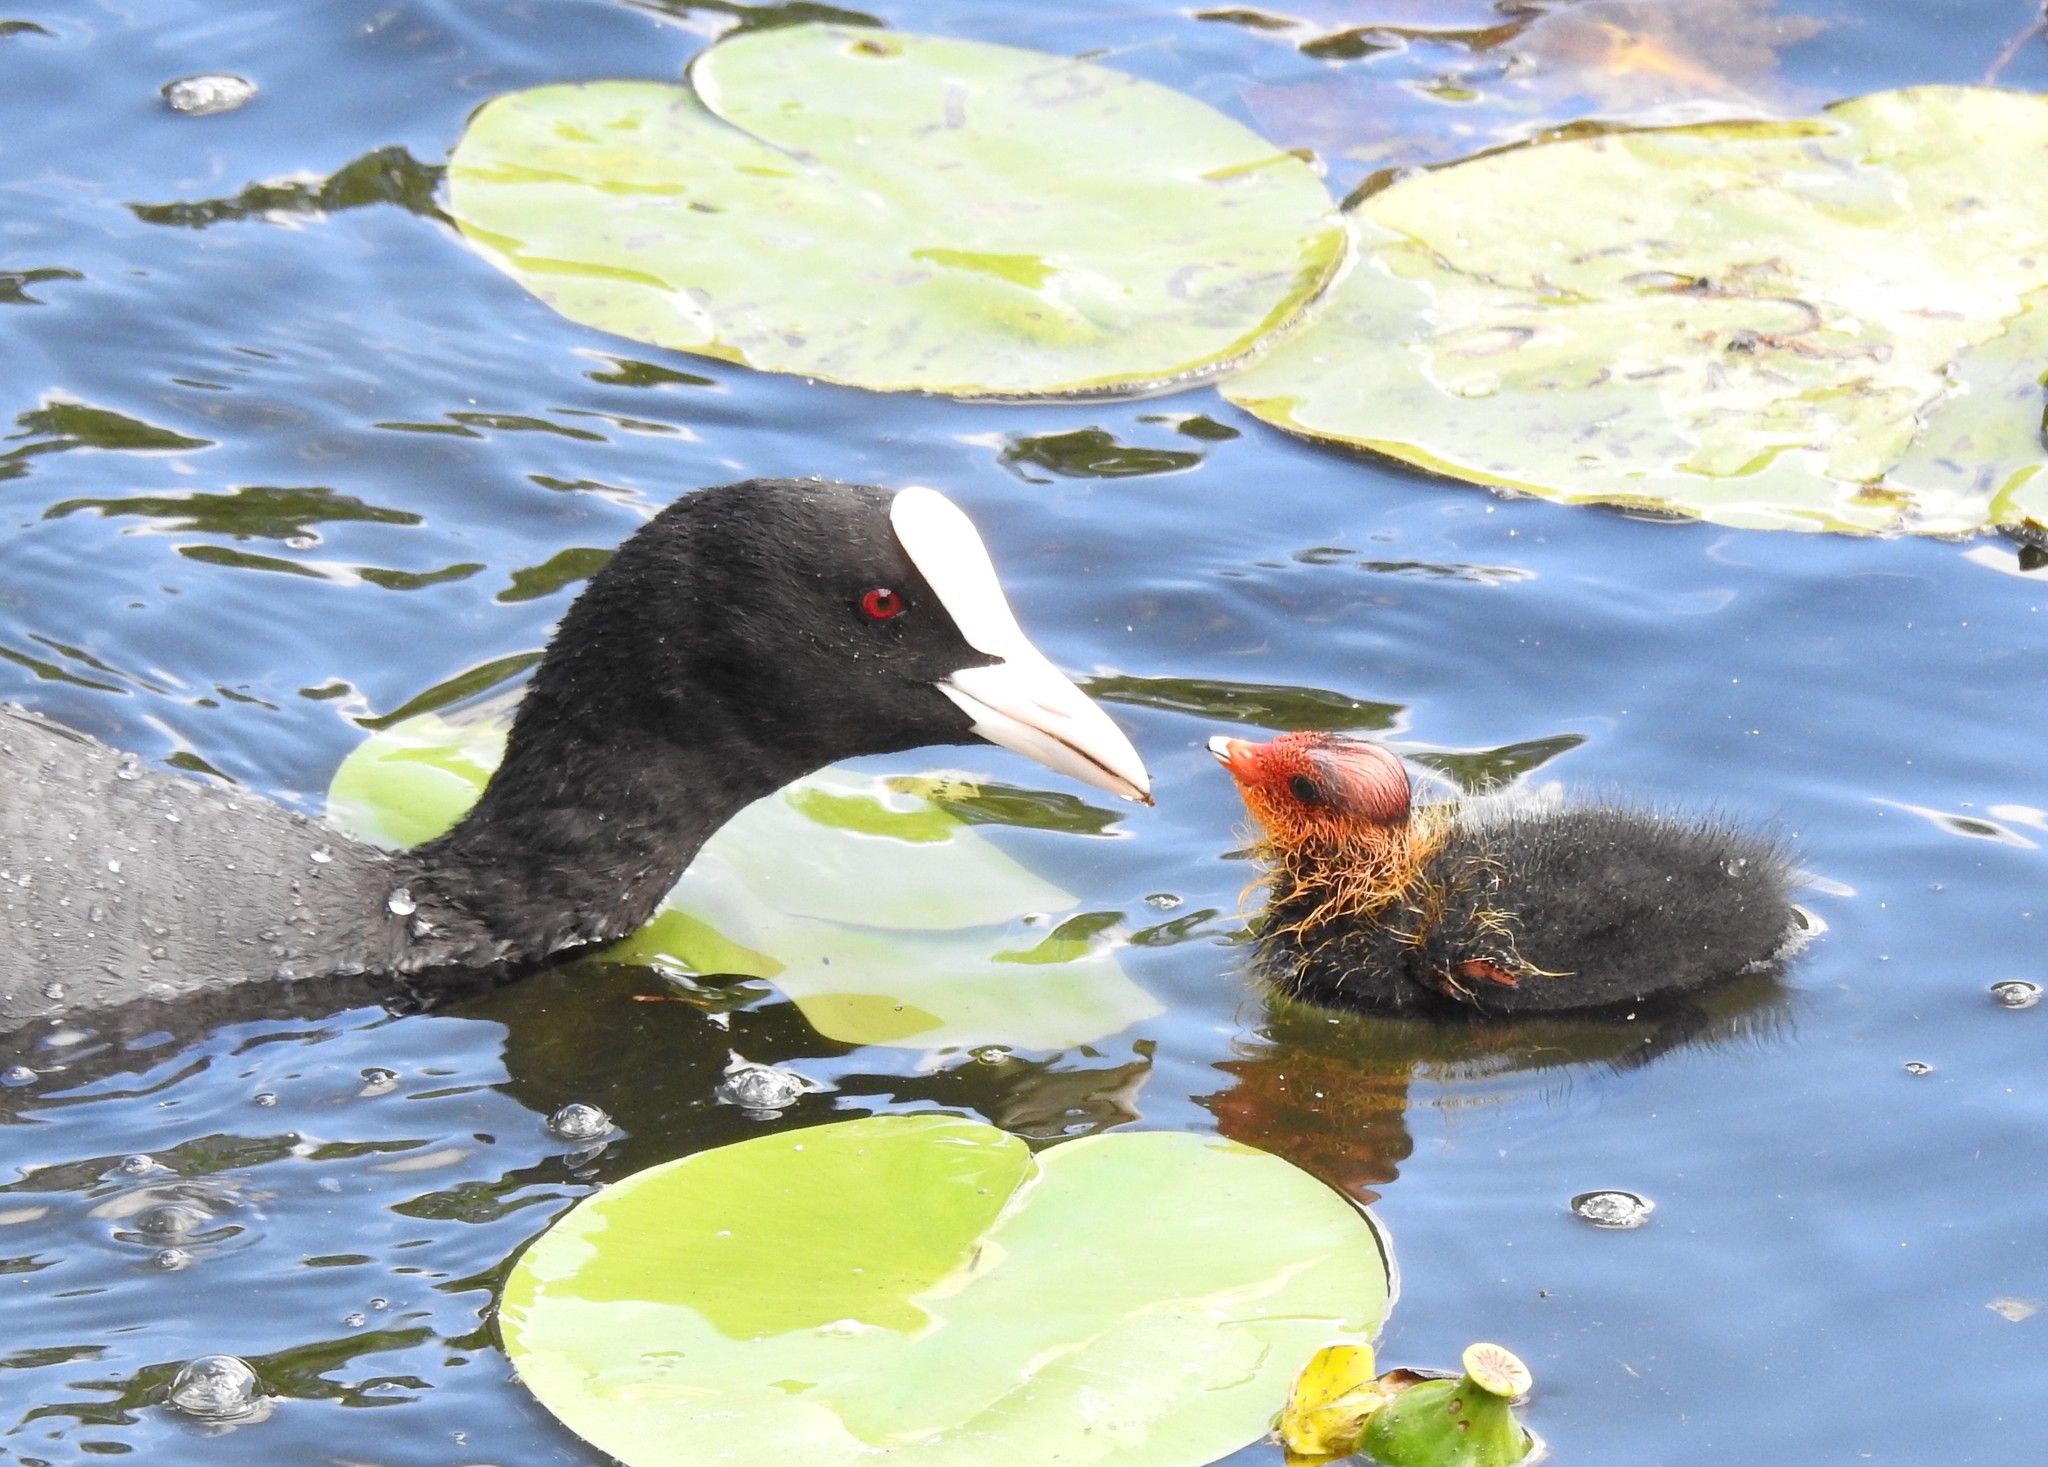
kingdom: Animalia
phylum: Chordata
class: Aves
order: Gruiformes
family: Rallidae
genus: Fulica
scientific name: Fulica atra
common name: Eurasian coot
